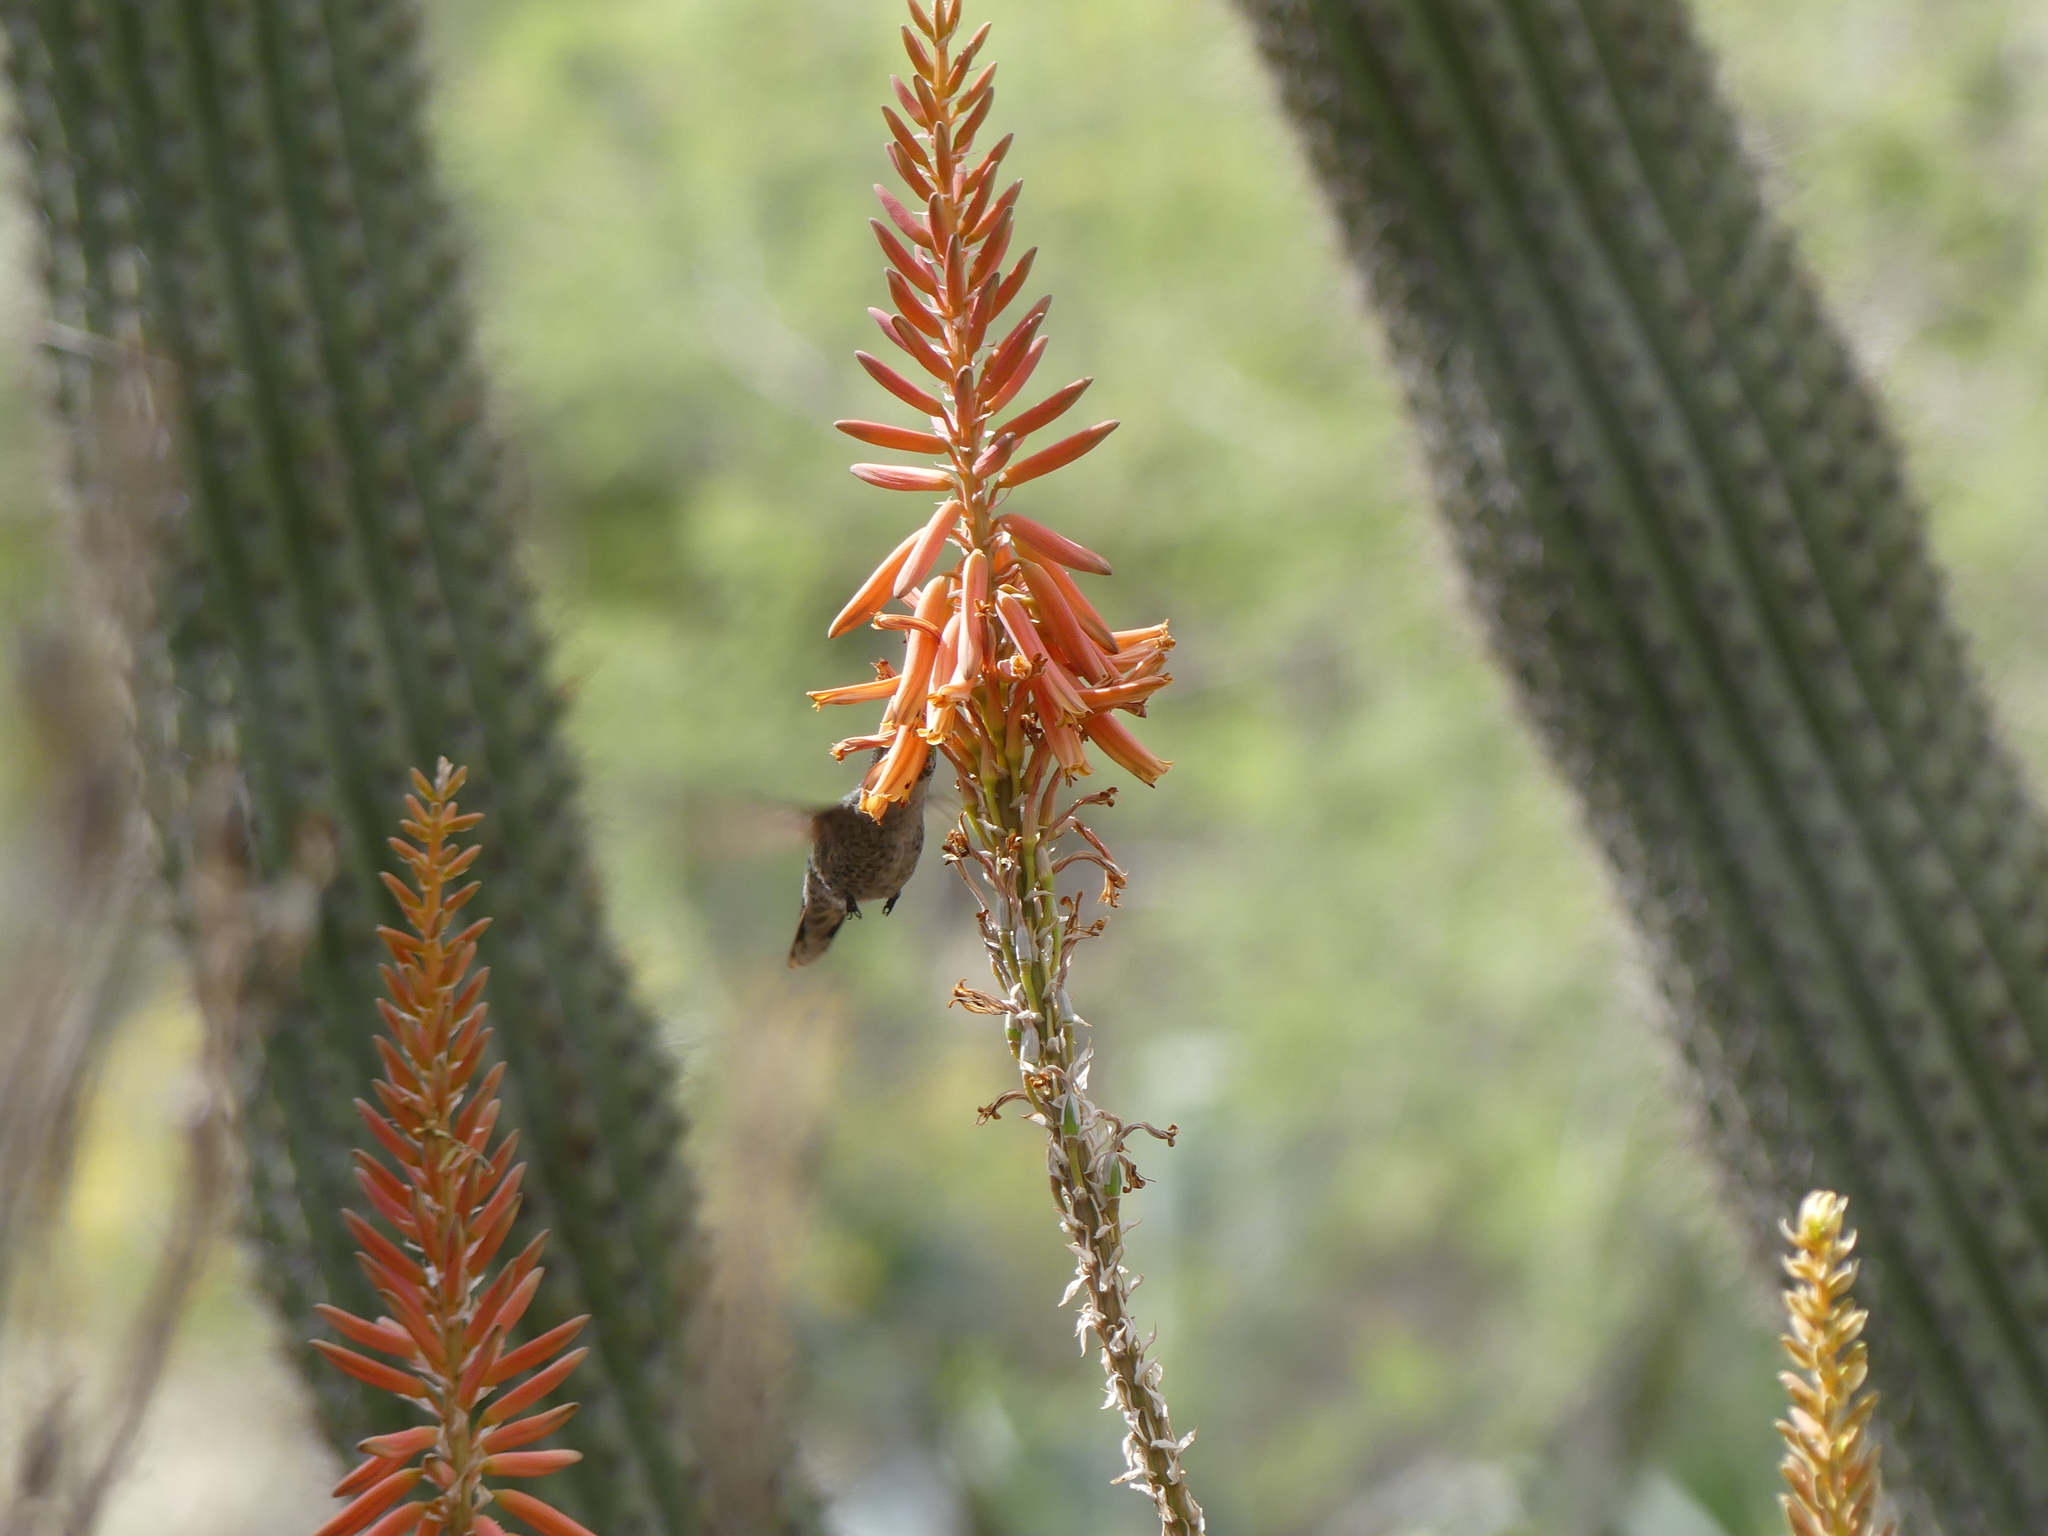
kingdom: Animalia
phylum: Chordata
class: Aves
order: Apodiformes
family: Trochilidae
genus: Calypte
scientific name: Calypte anna
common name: Anna's hummingbird
